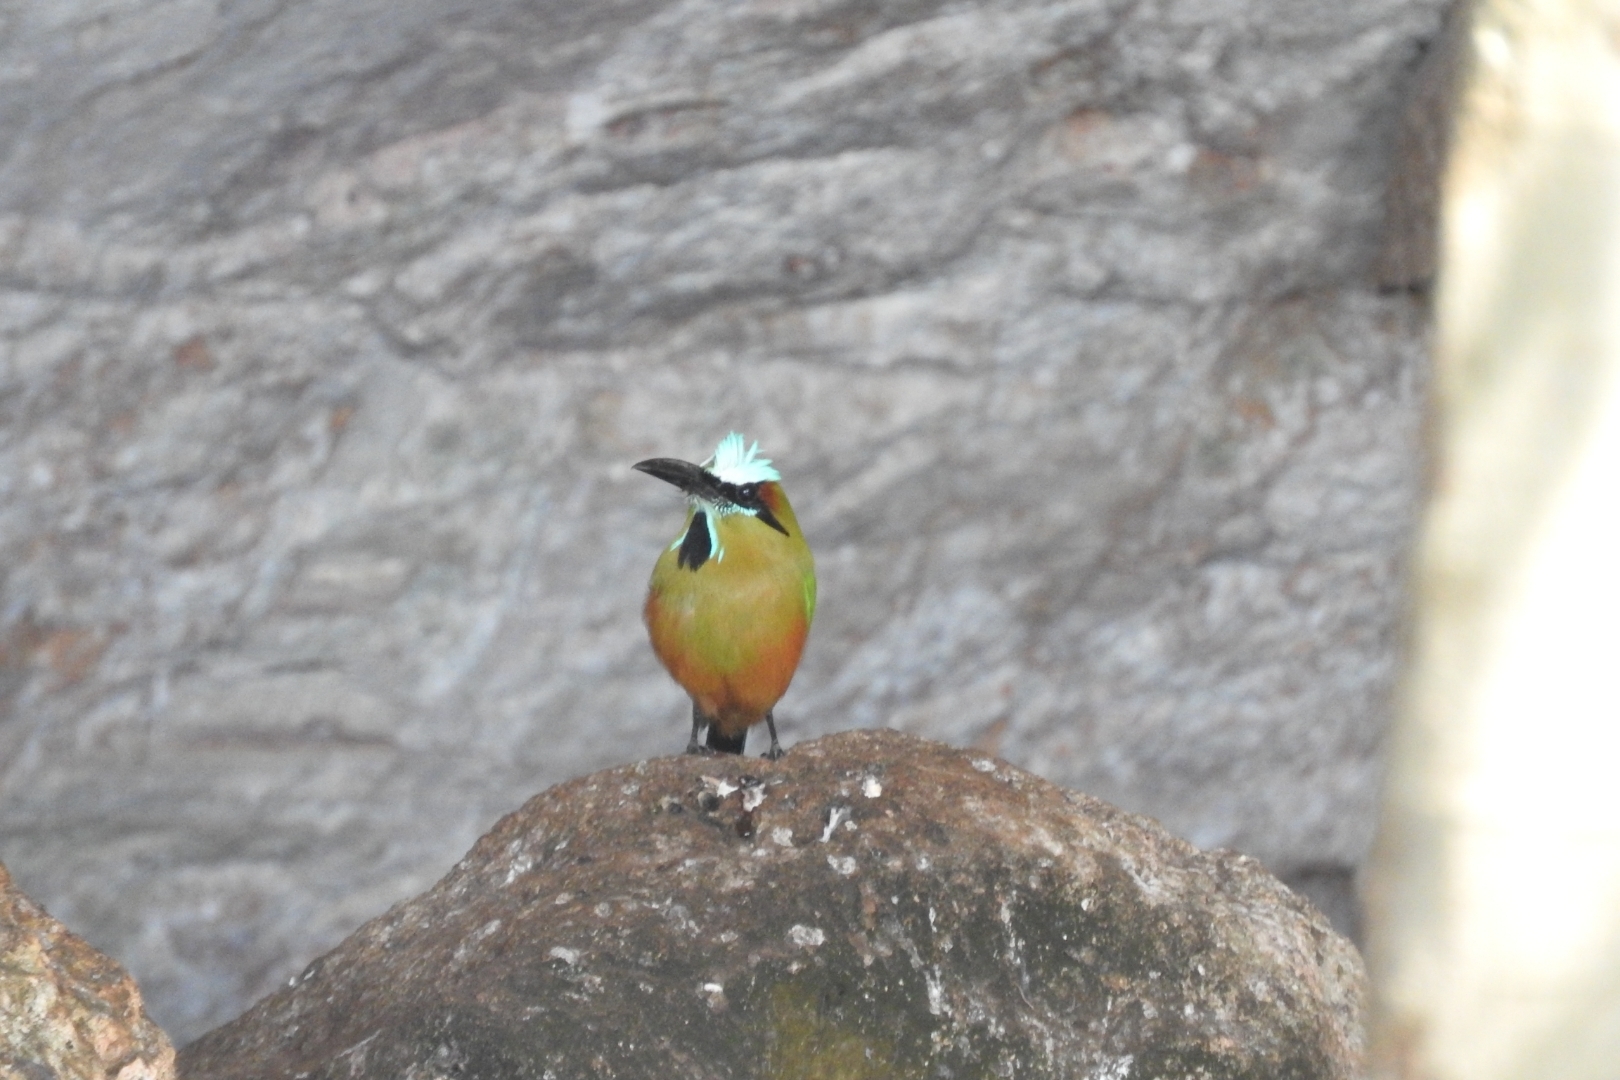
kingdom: Animalia
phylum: Chordata
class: Aves
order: Coraciiformes
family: Momotidae
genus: Eumomota
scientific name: Eumomota superciliosa
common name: Turquoise-browed motmot
